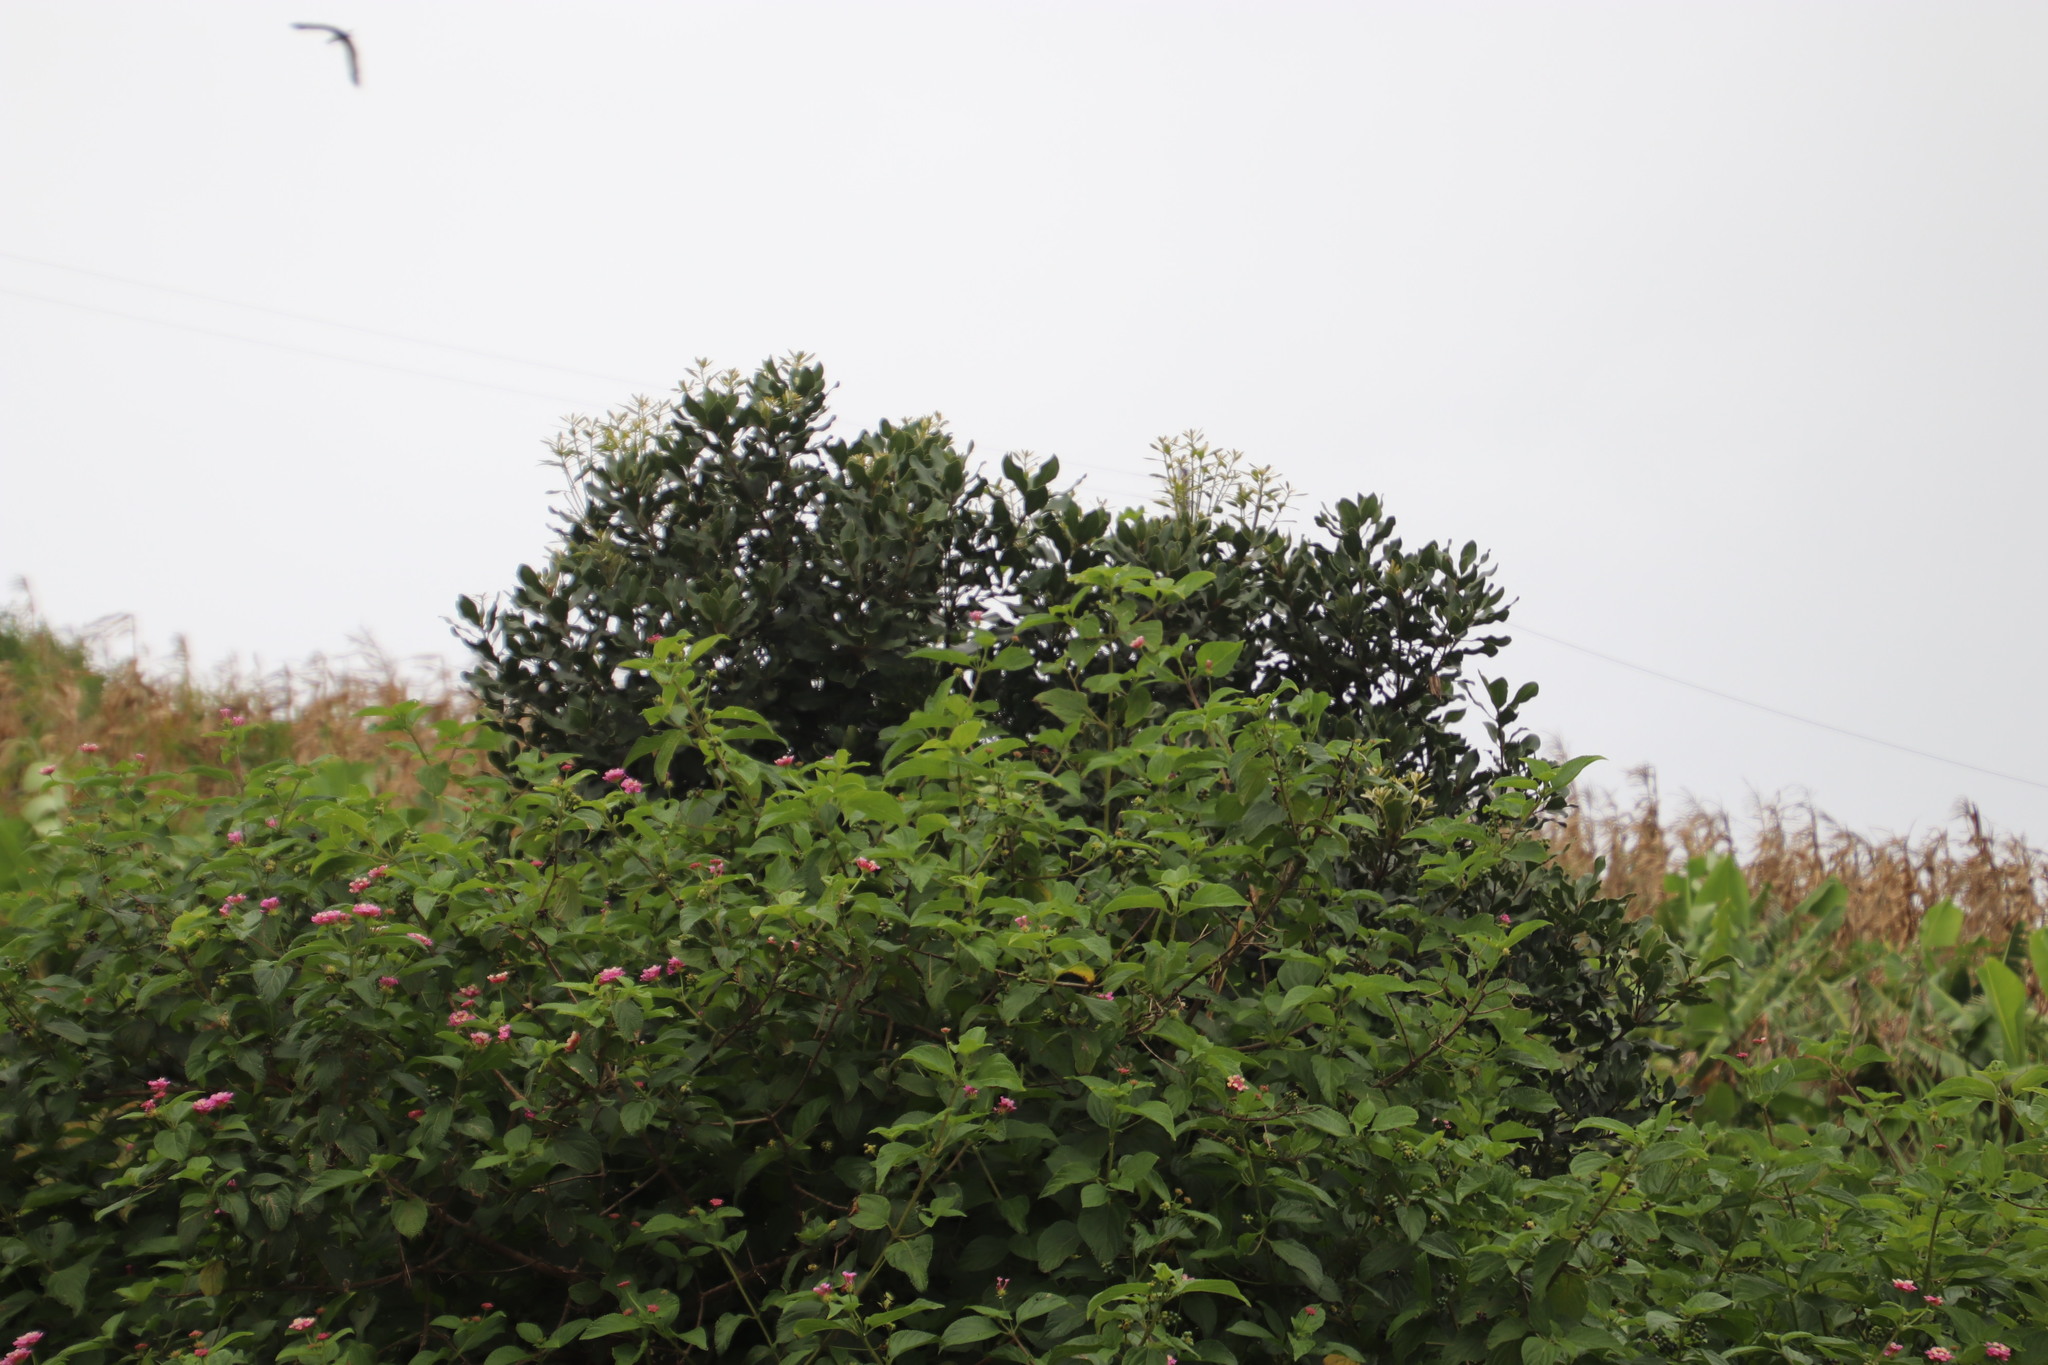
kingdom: Plantae
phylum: Tracheophyta
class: Magnoliopsida
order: Ericales
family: Ebenaceae
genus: Euclea
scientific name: Euclea natalensis
